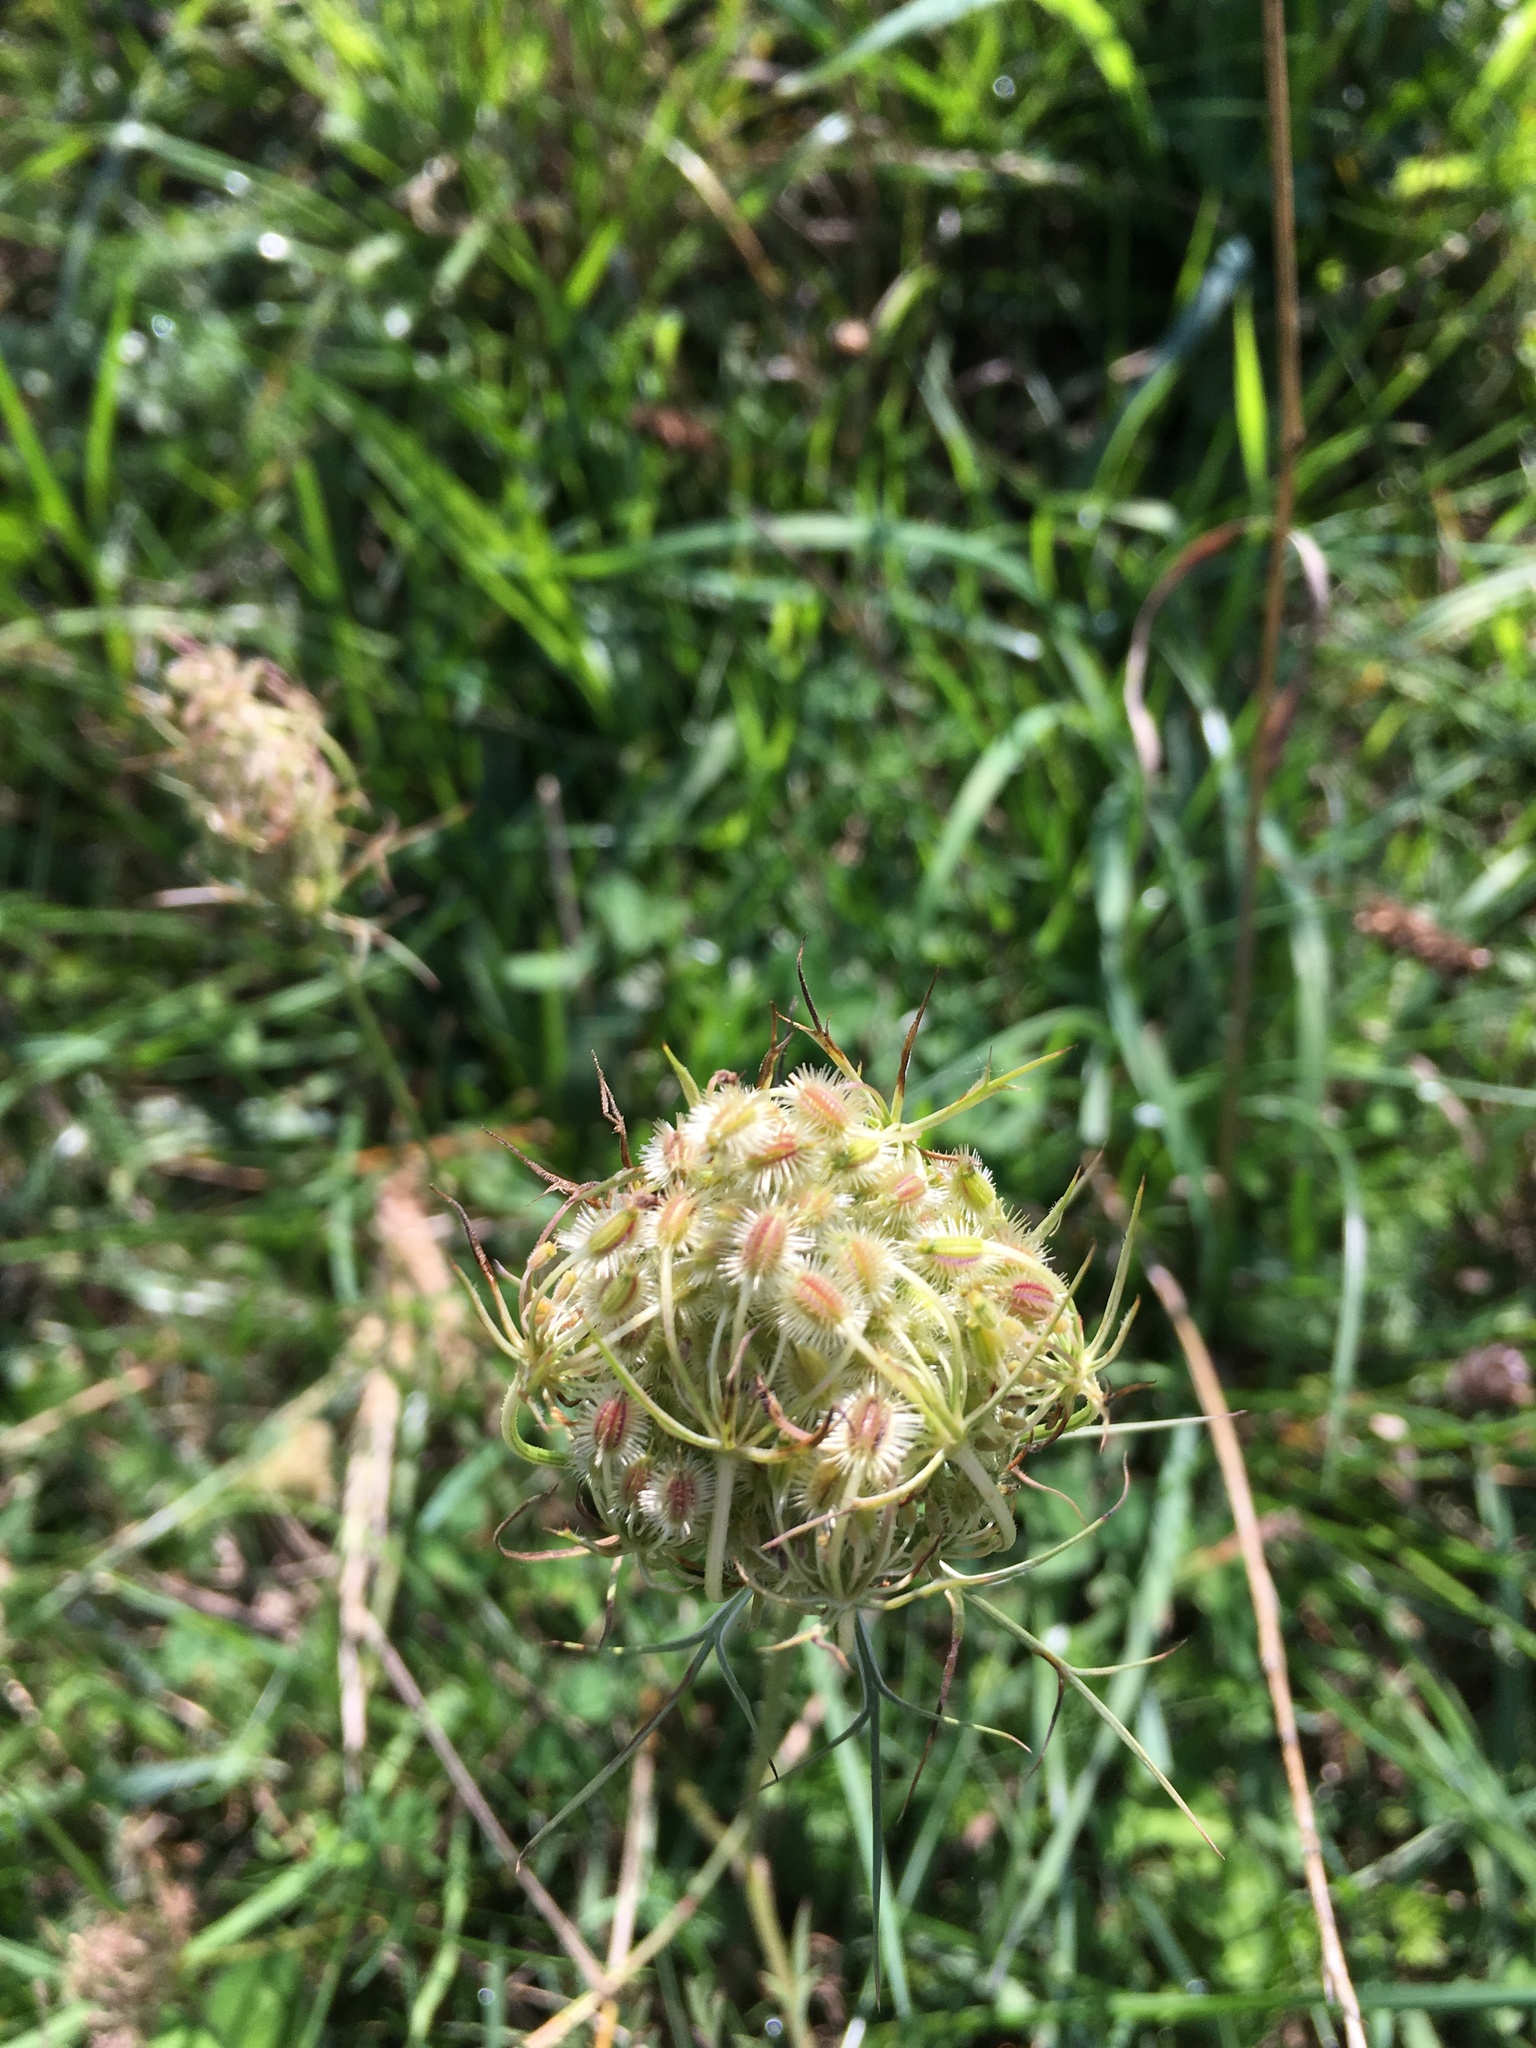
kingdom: Plantae
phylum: Tracheophyta
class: Magnoliopsida
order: Apiales
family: Apiaceae
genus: Daucus
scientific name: Daucus carota
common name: Wild carrot
